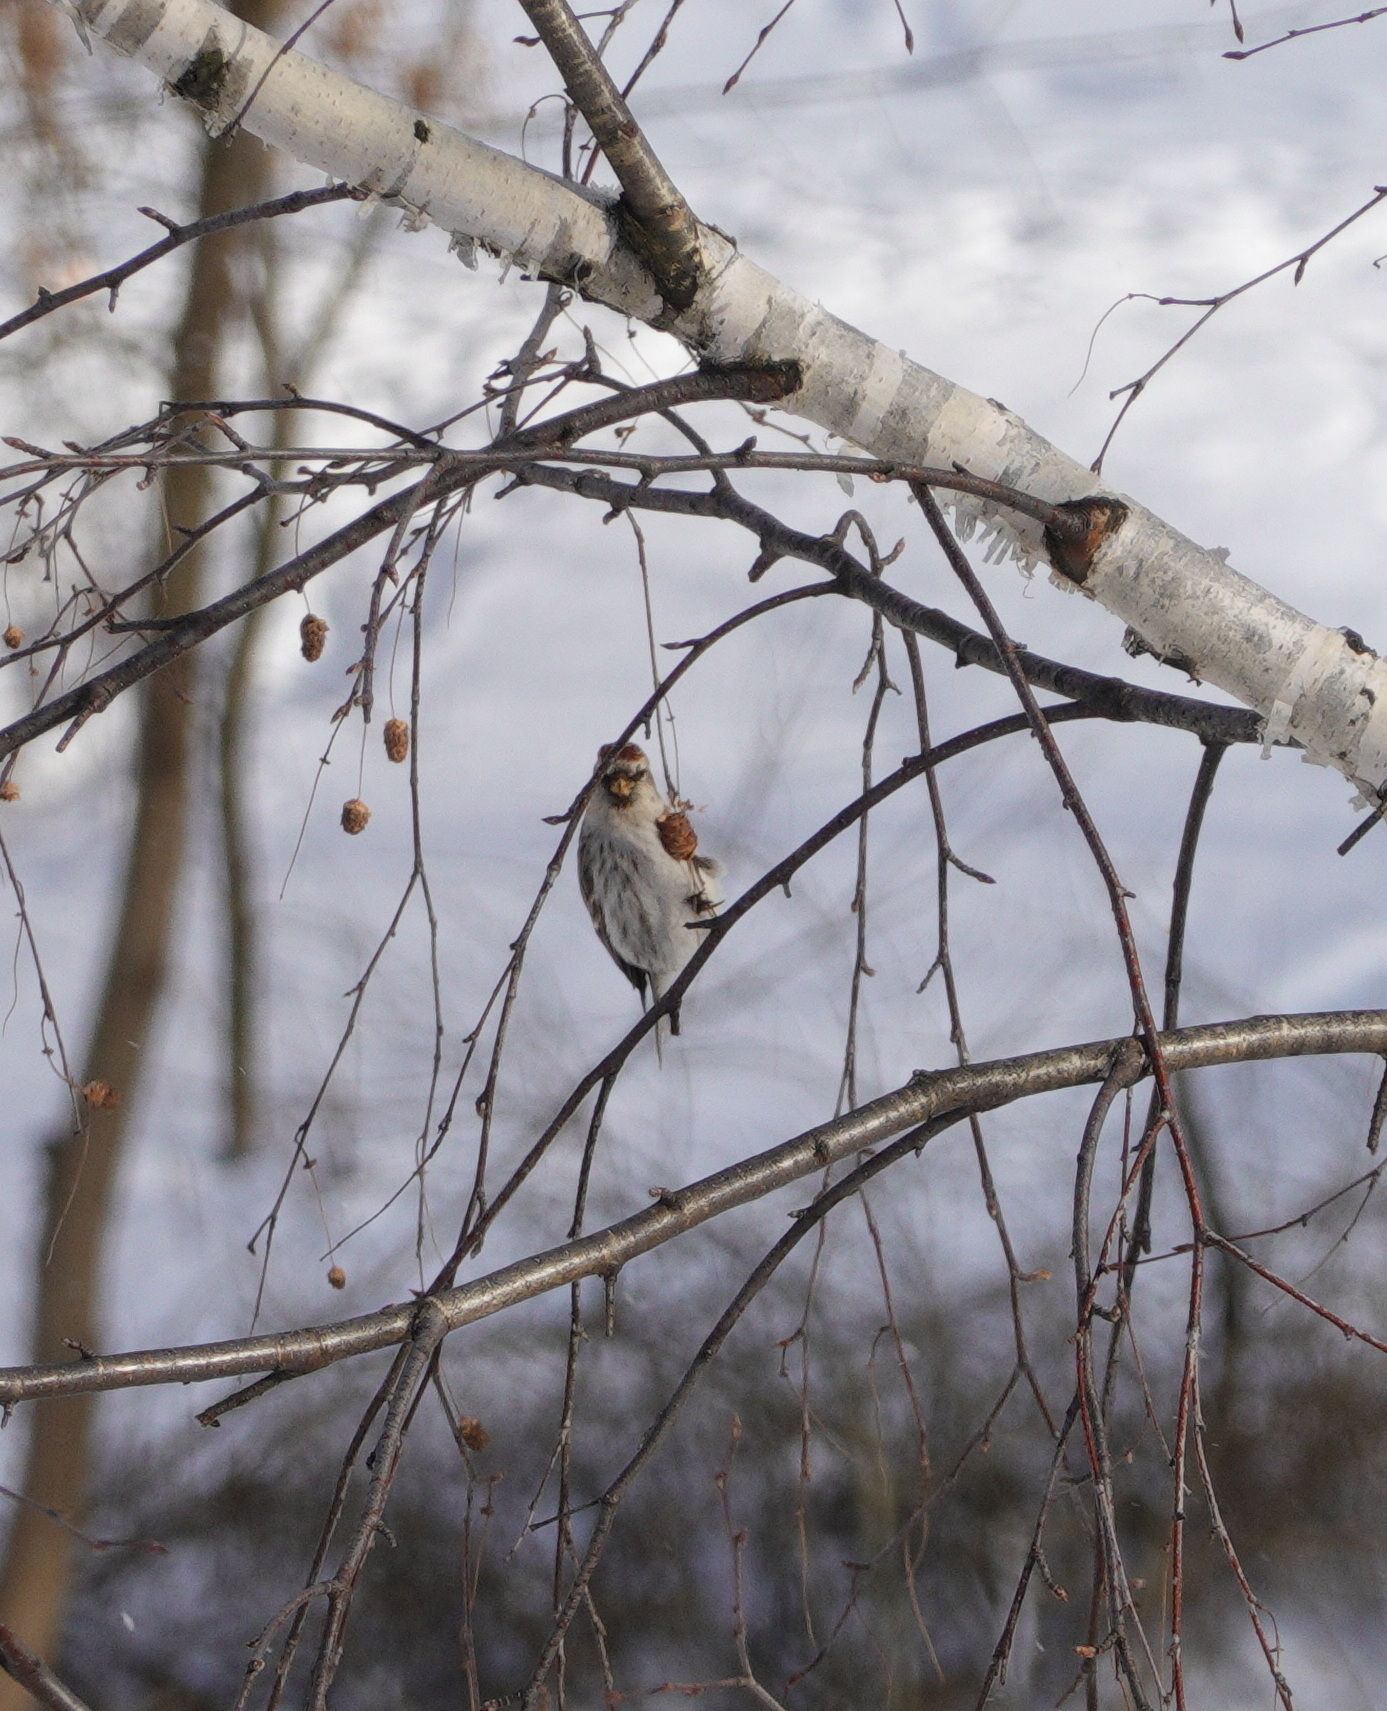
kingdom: Animalia
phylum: Chordata
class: Aves
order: Passeriformes
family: Fringillidae
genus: Acanthis
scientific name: Acanthis flammea
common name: Common redpoll
